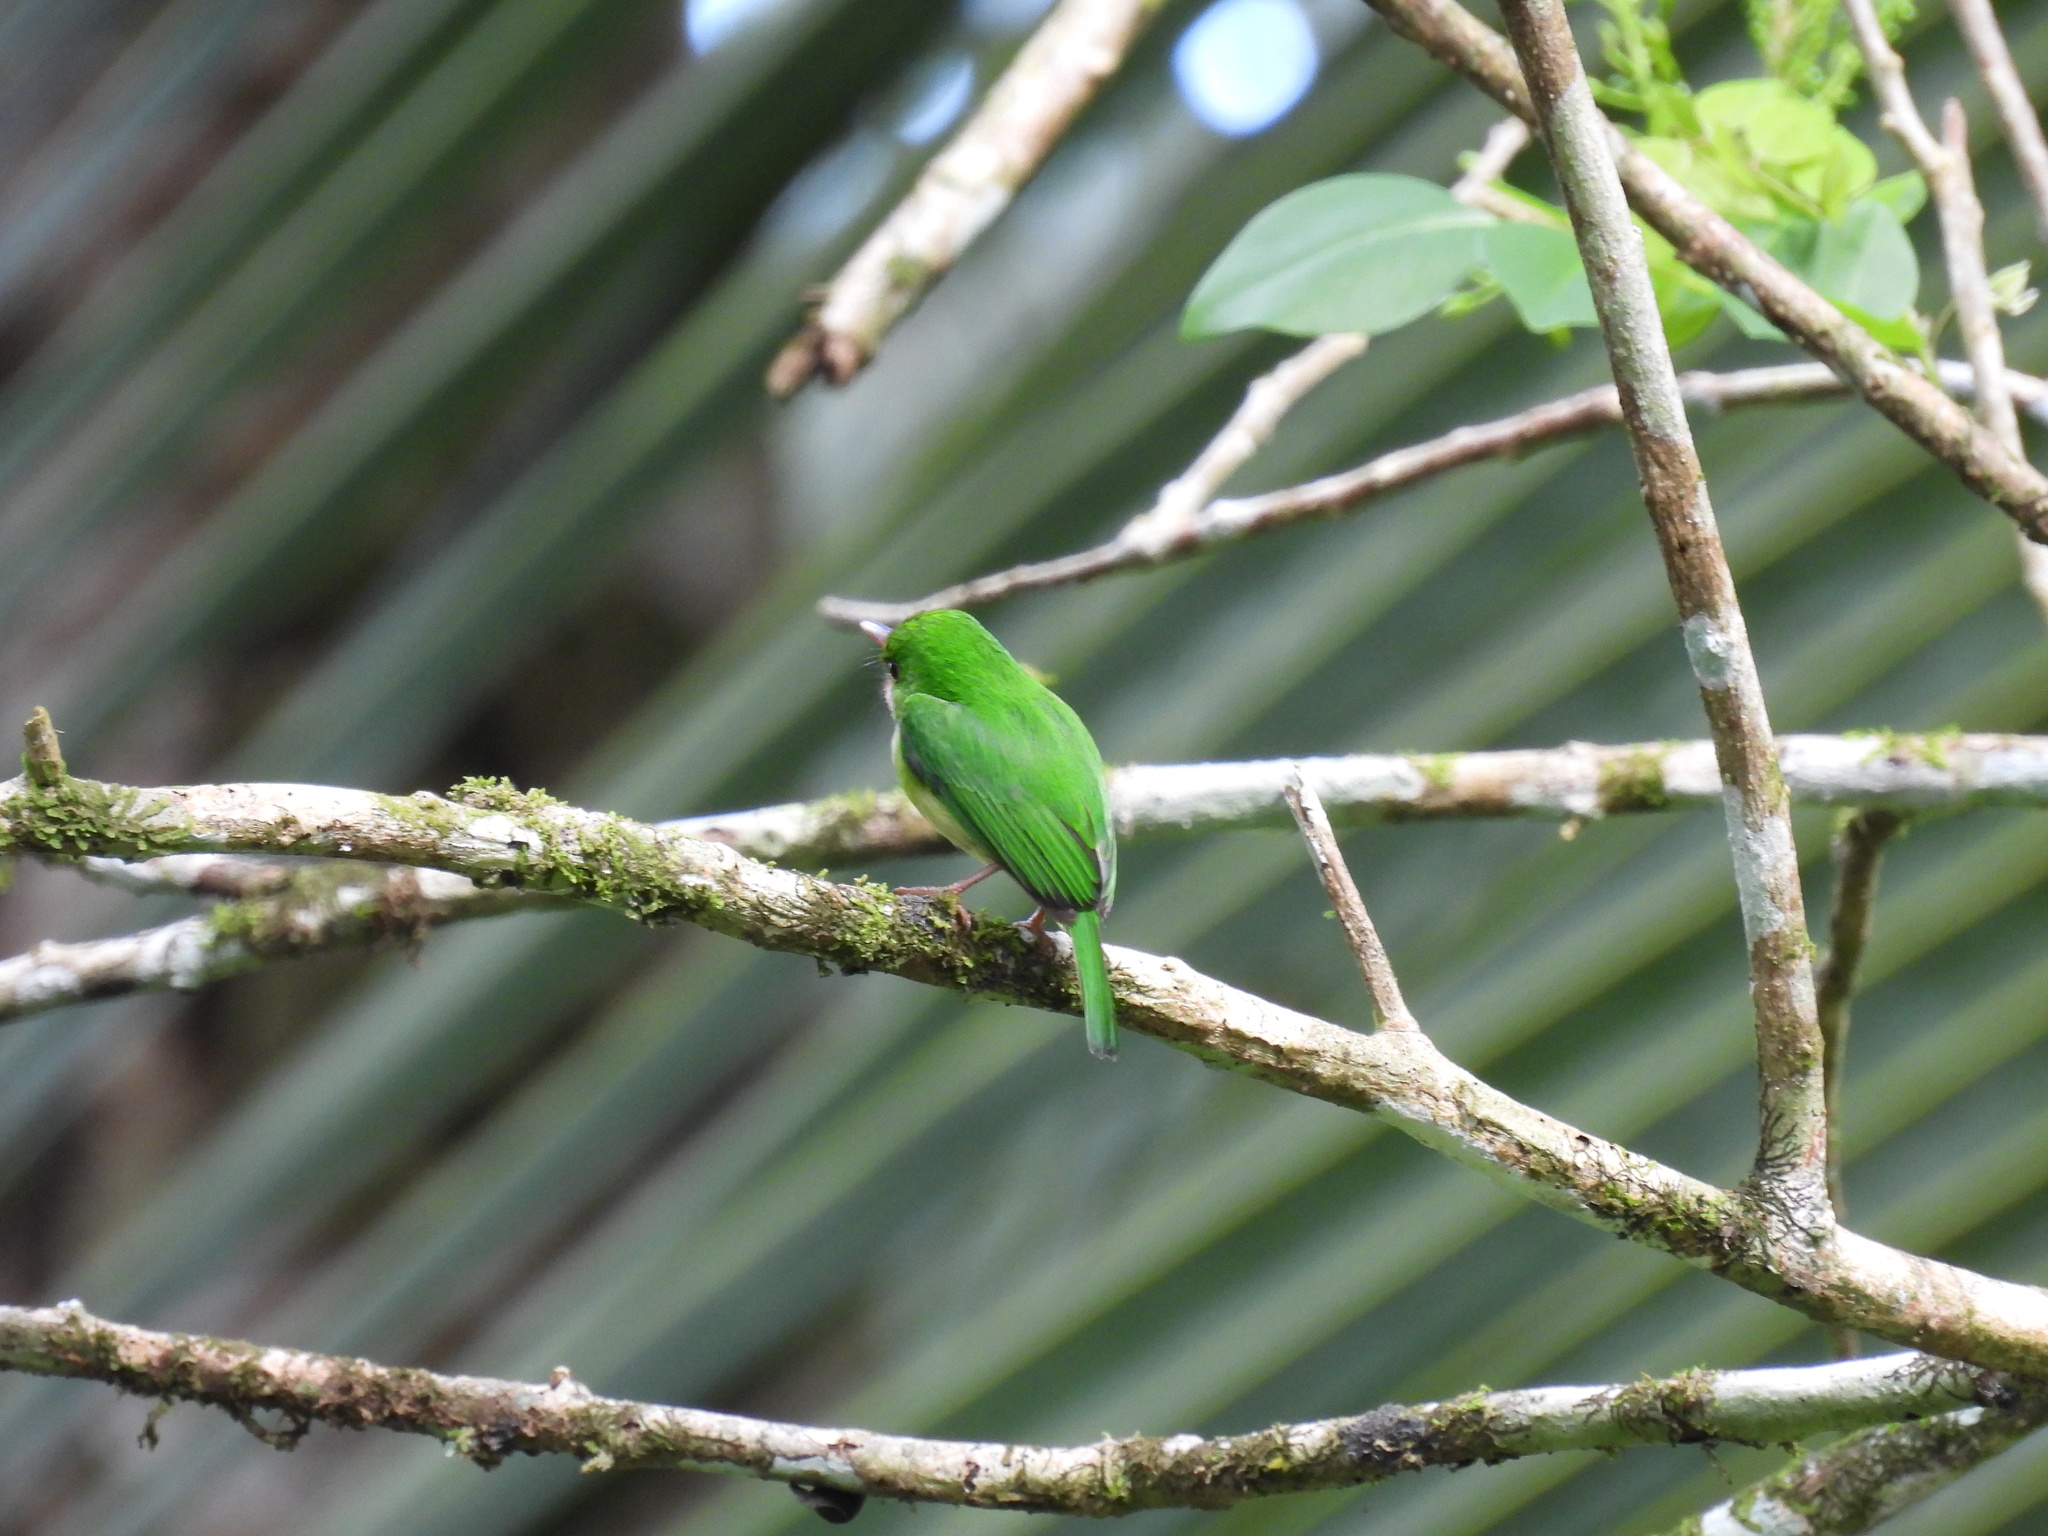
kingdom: Animalia
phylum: Chordata
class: Aves
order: Coraciiformes
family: Todidae
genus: Todus
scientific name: Todus todus
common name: Jamaican tody
